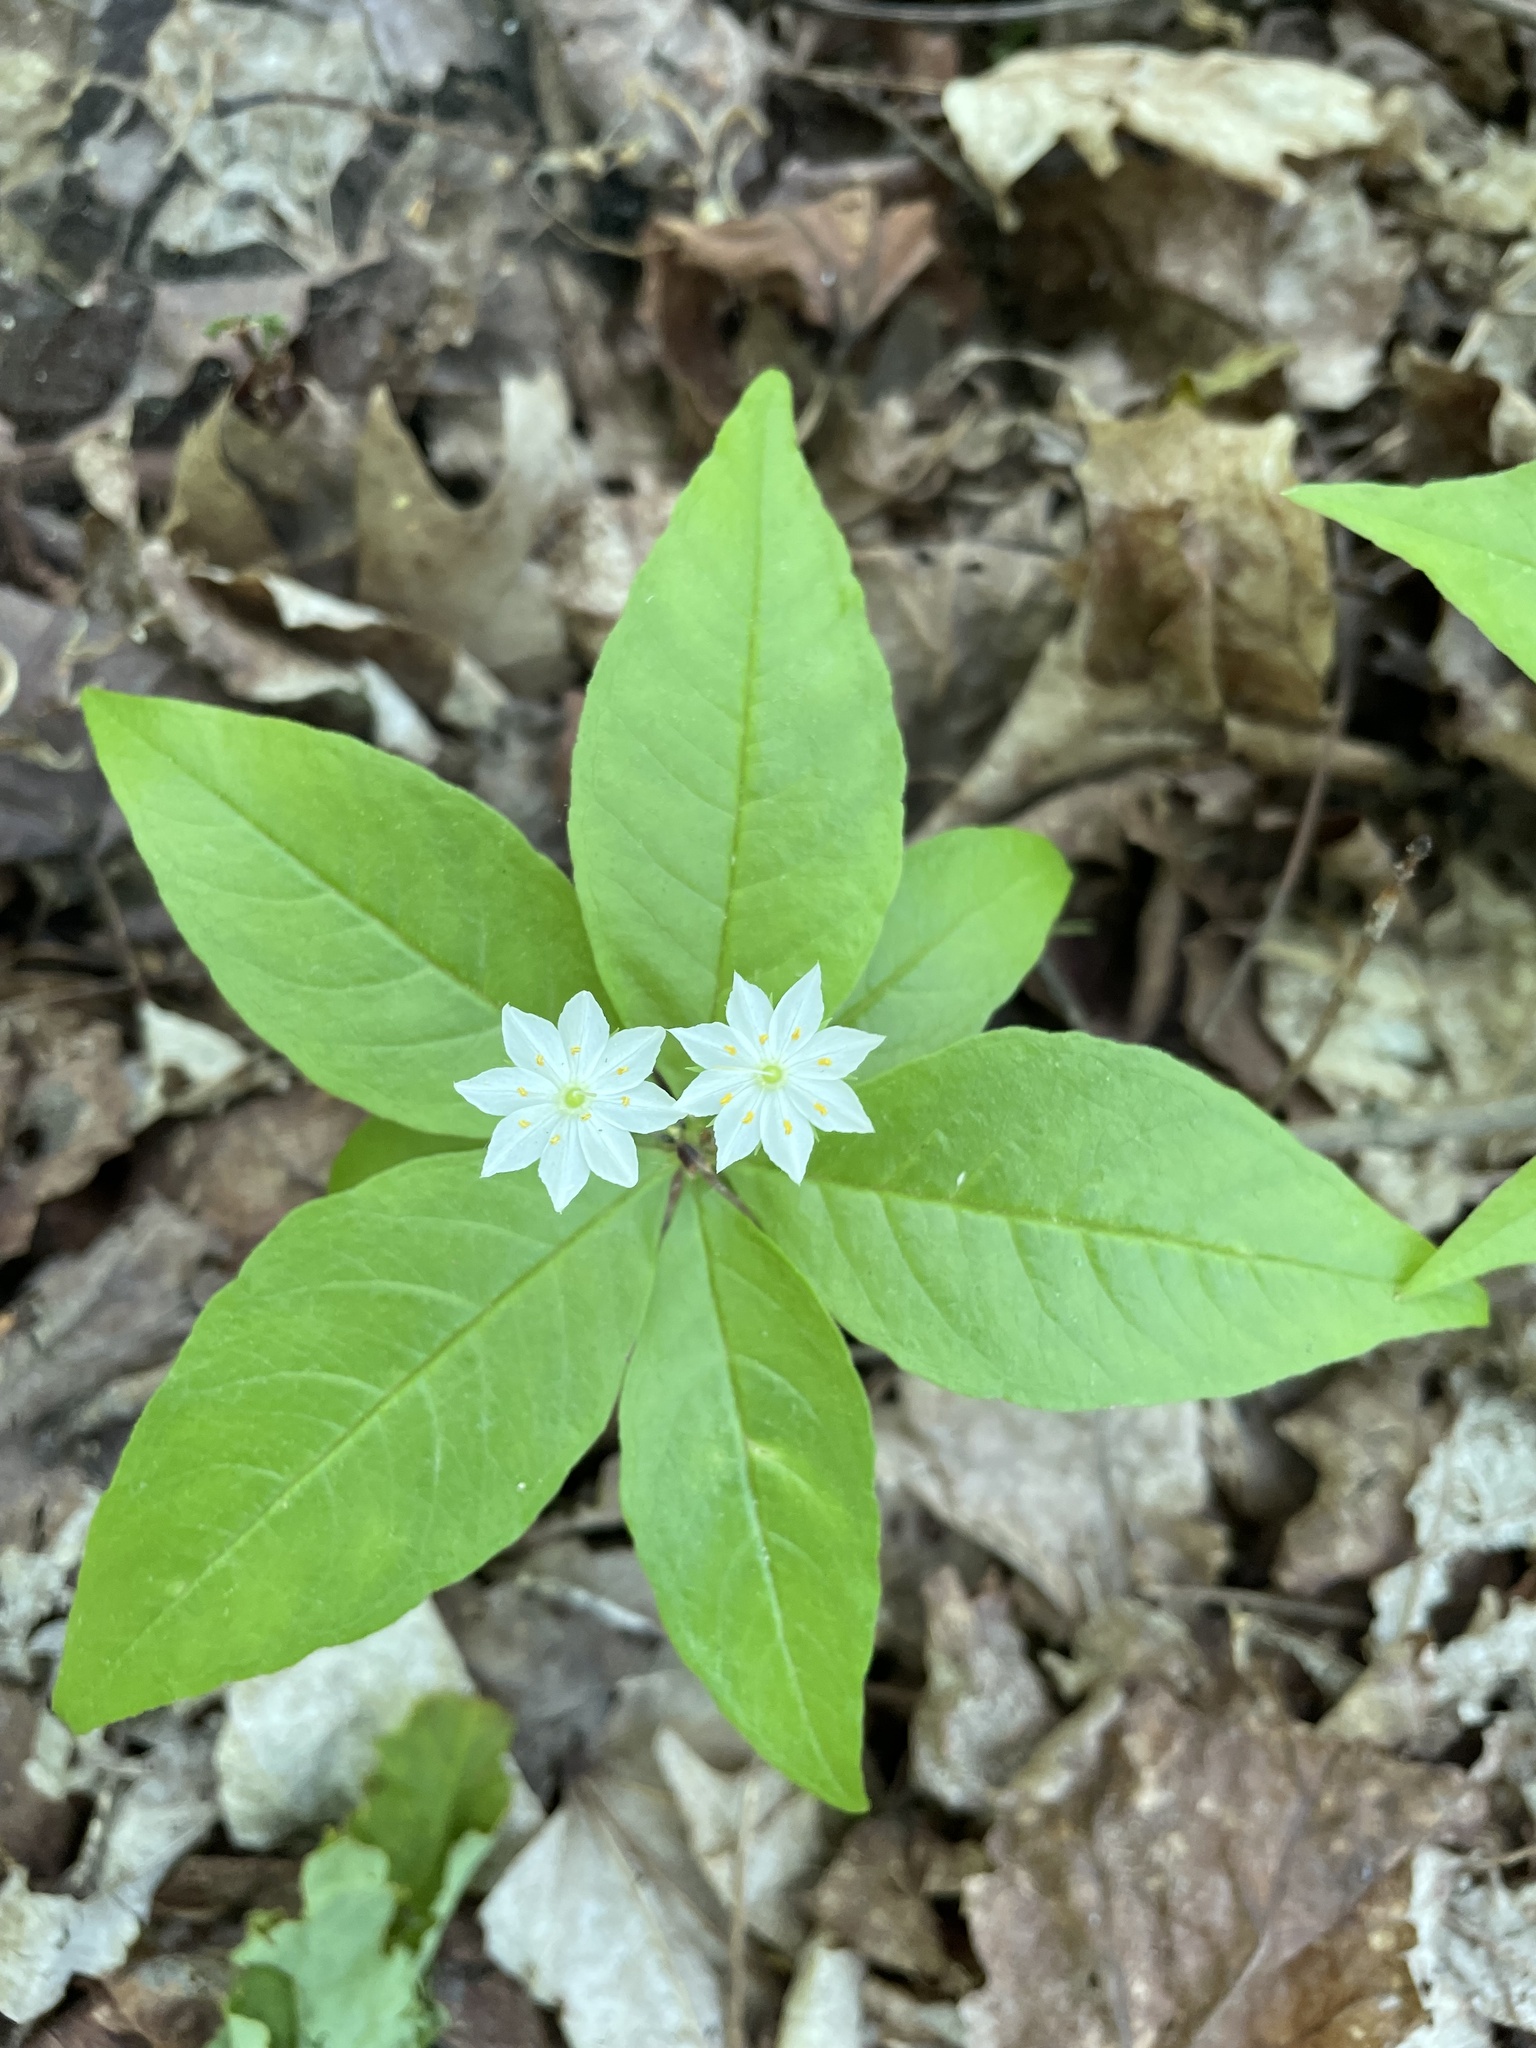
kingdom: Plantae
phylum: Tracheophyta
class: Magnoliopsida
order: Ericales
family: Primulaceae
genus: Lysimachia
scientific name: Lysimachia borealis
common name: American starflower
